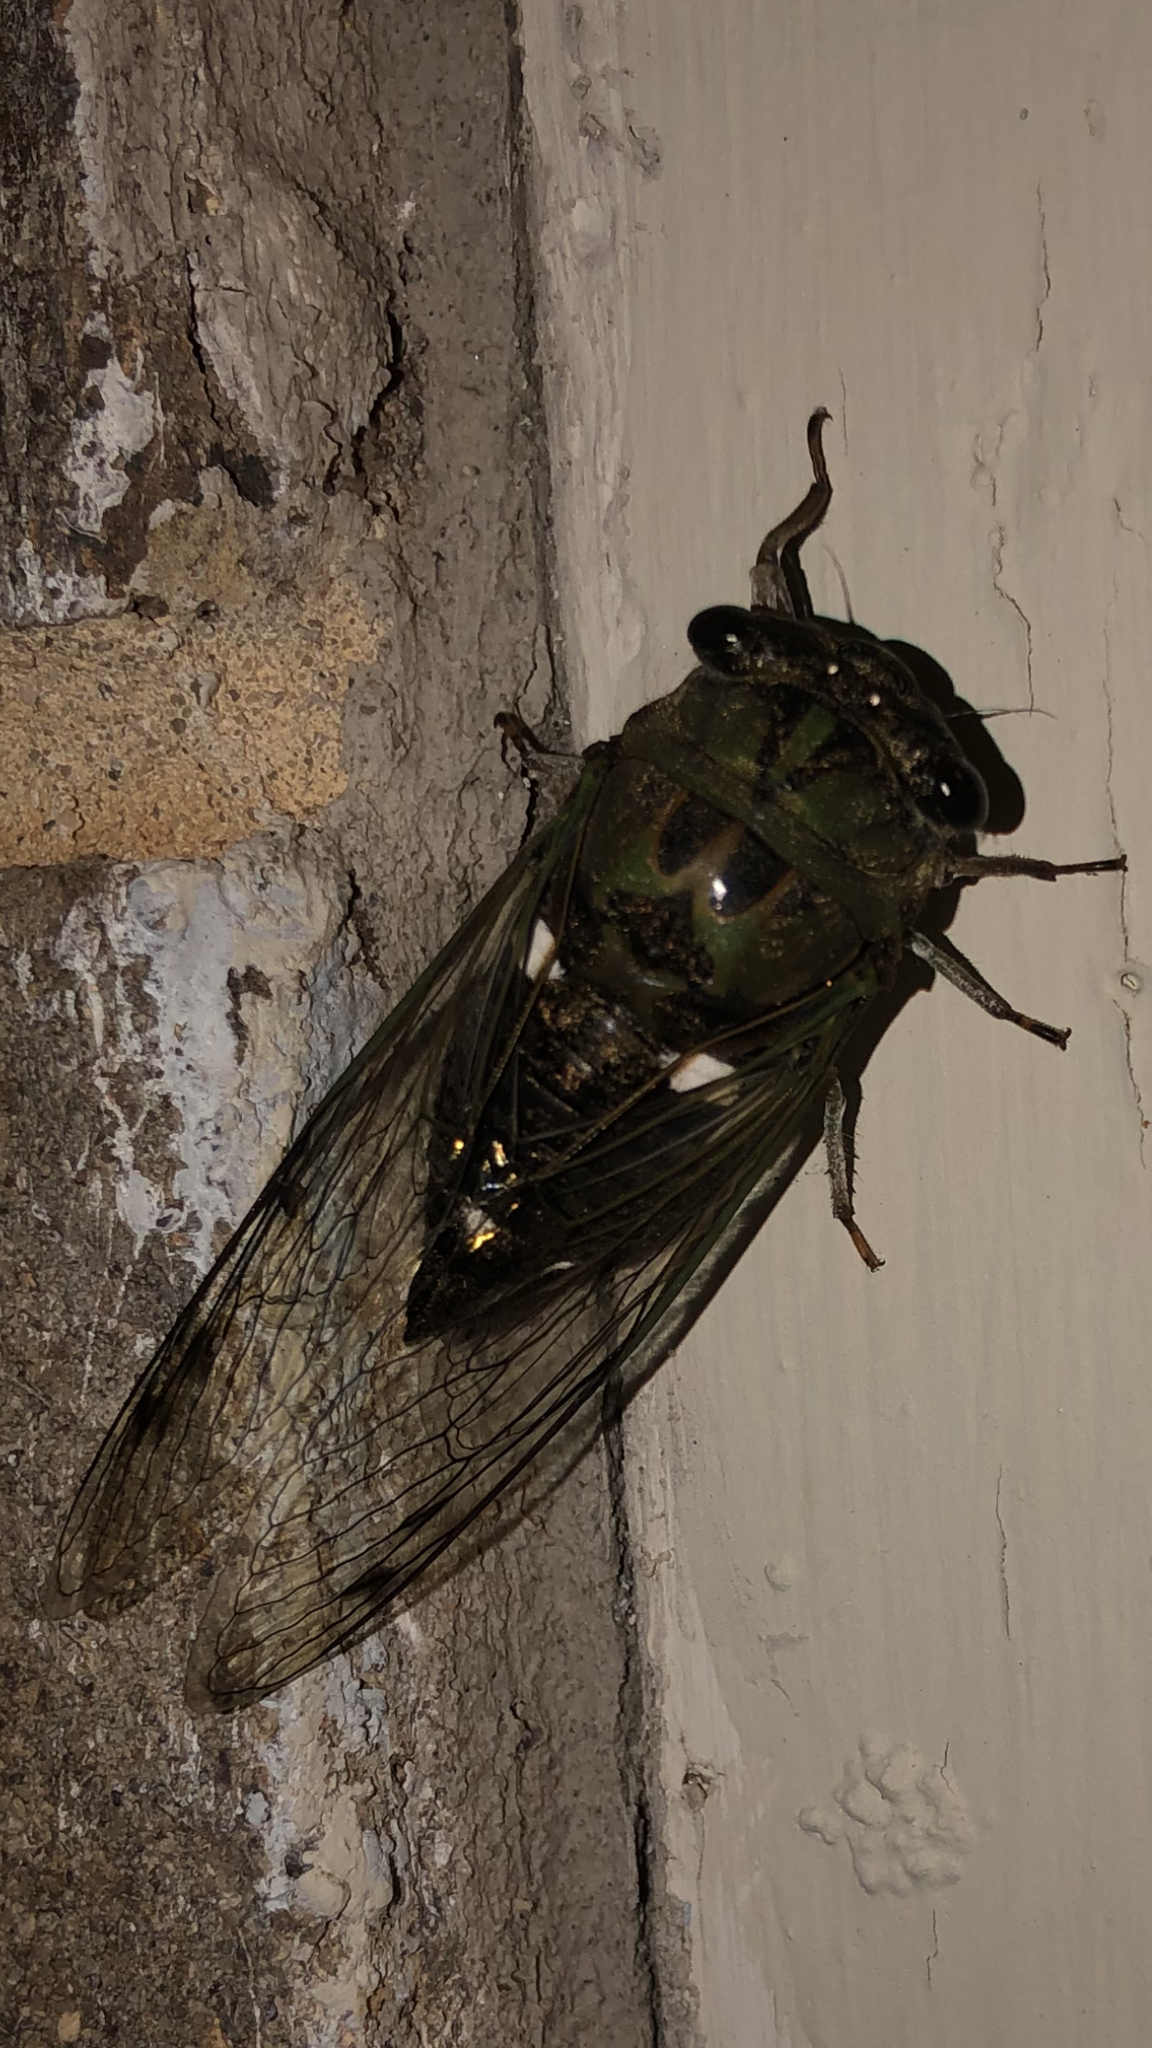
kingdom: Animalia
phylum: Arthropoda
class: Insecta
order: Hemiptera
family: Cicadidae
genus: Neotibicen
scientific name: Neotibicen pruinosus
